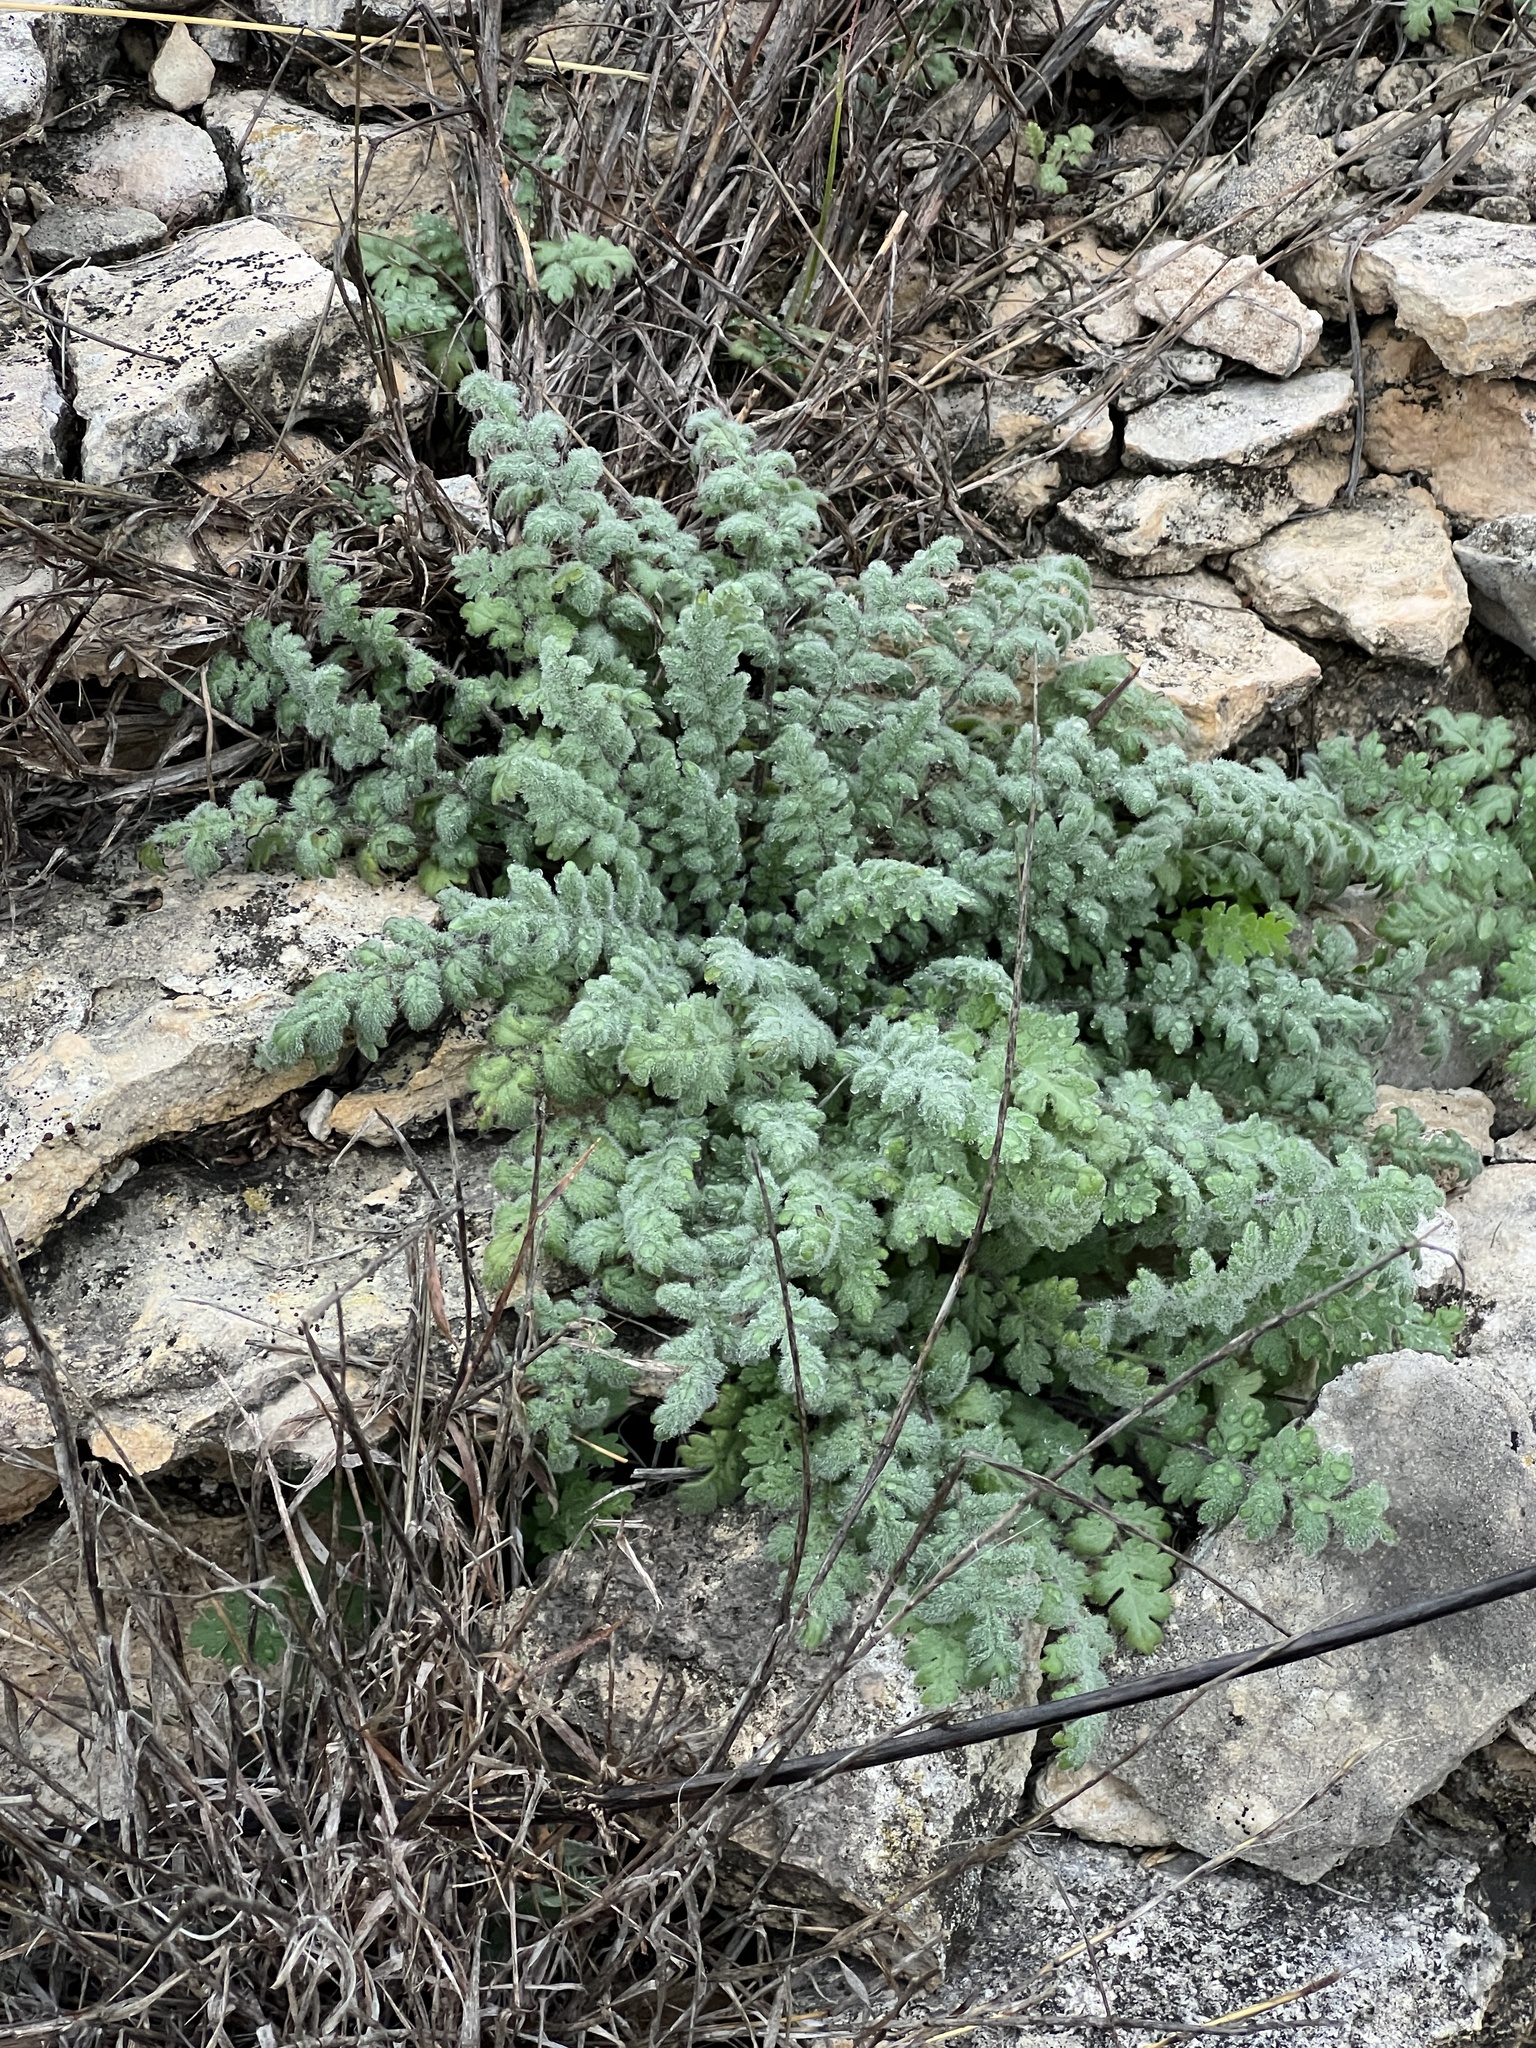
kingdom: Plantae
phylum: Tracheophyta
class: Magnoliopsida
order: Boraginales
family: Hydrophyllaceae
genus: Phacelia
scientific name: Phacelia congesta
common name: Blue curls
